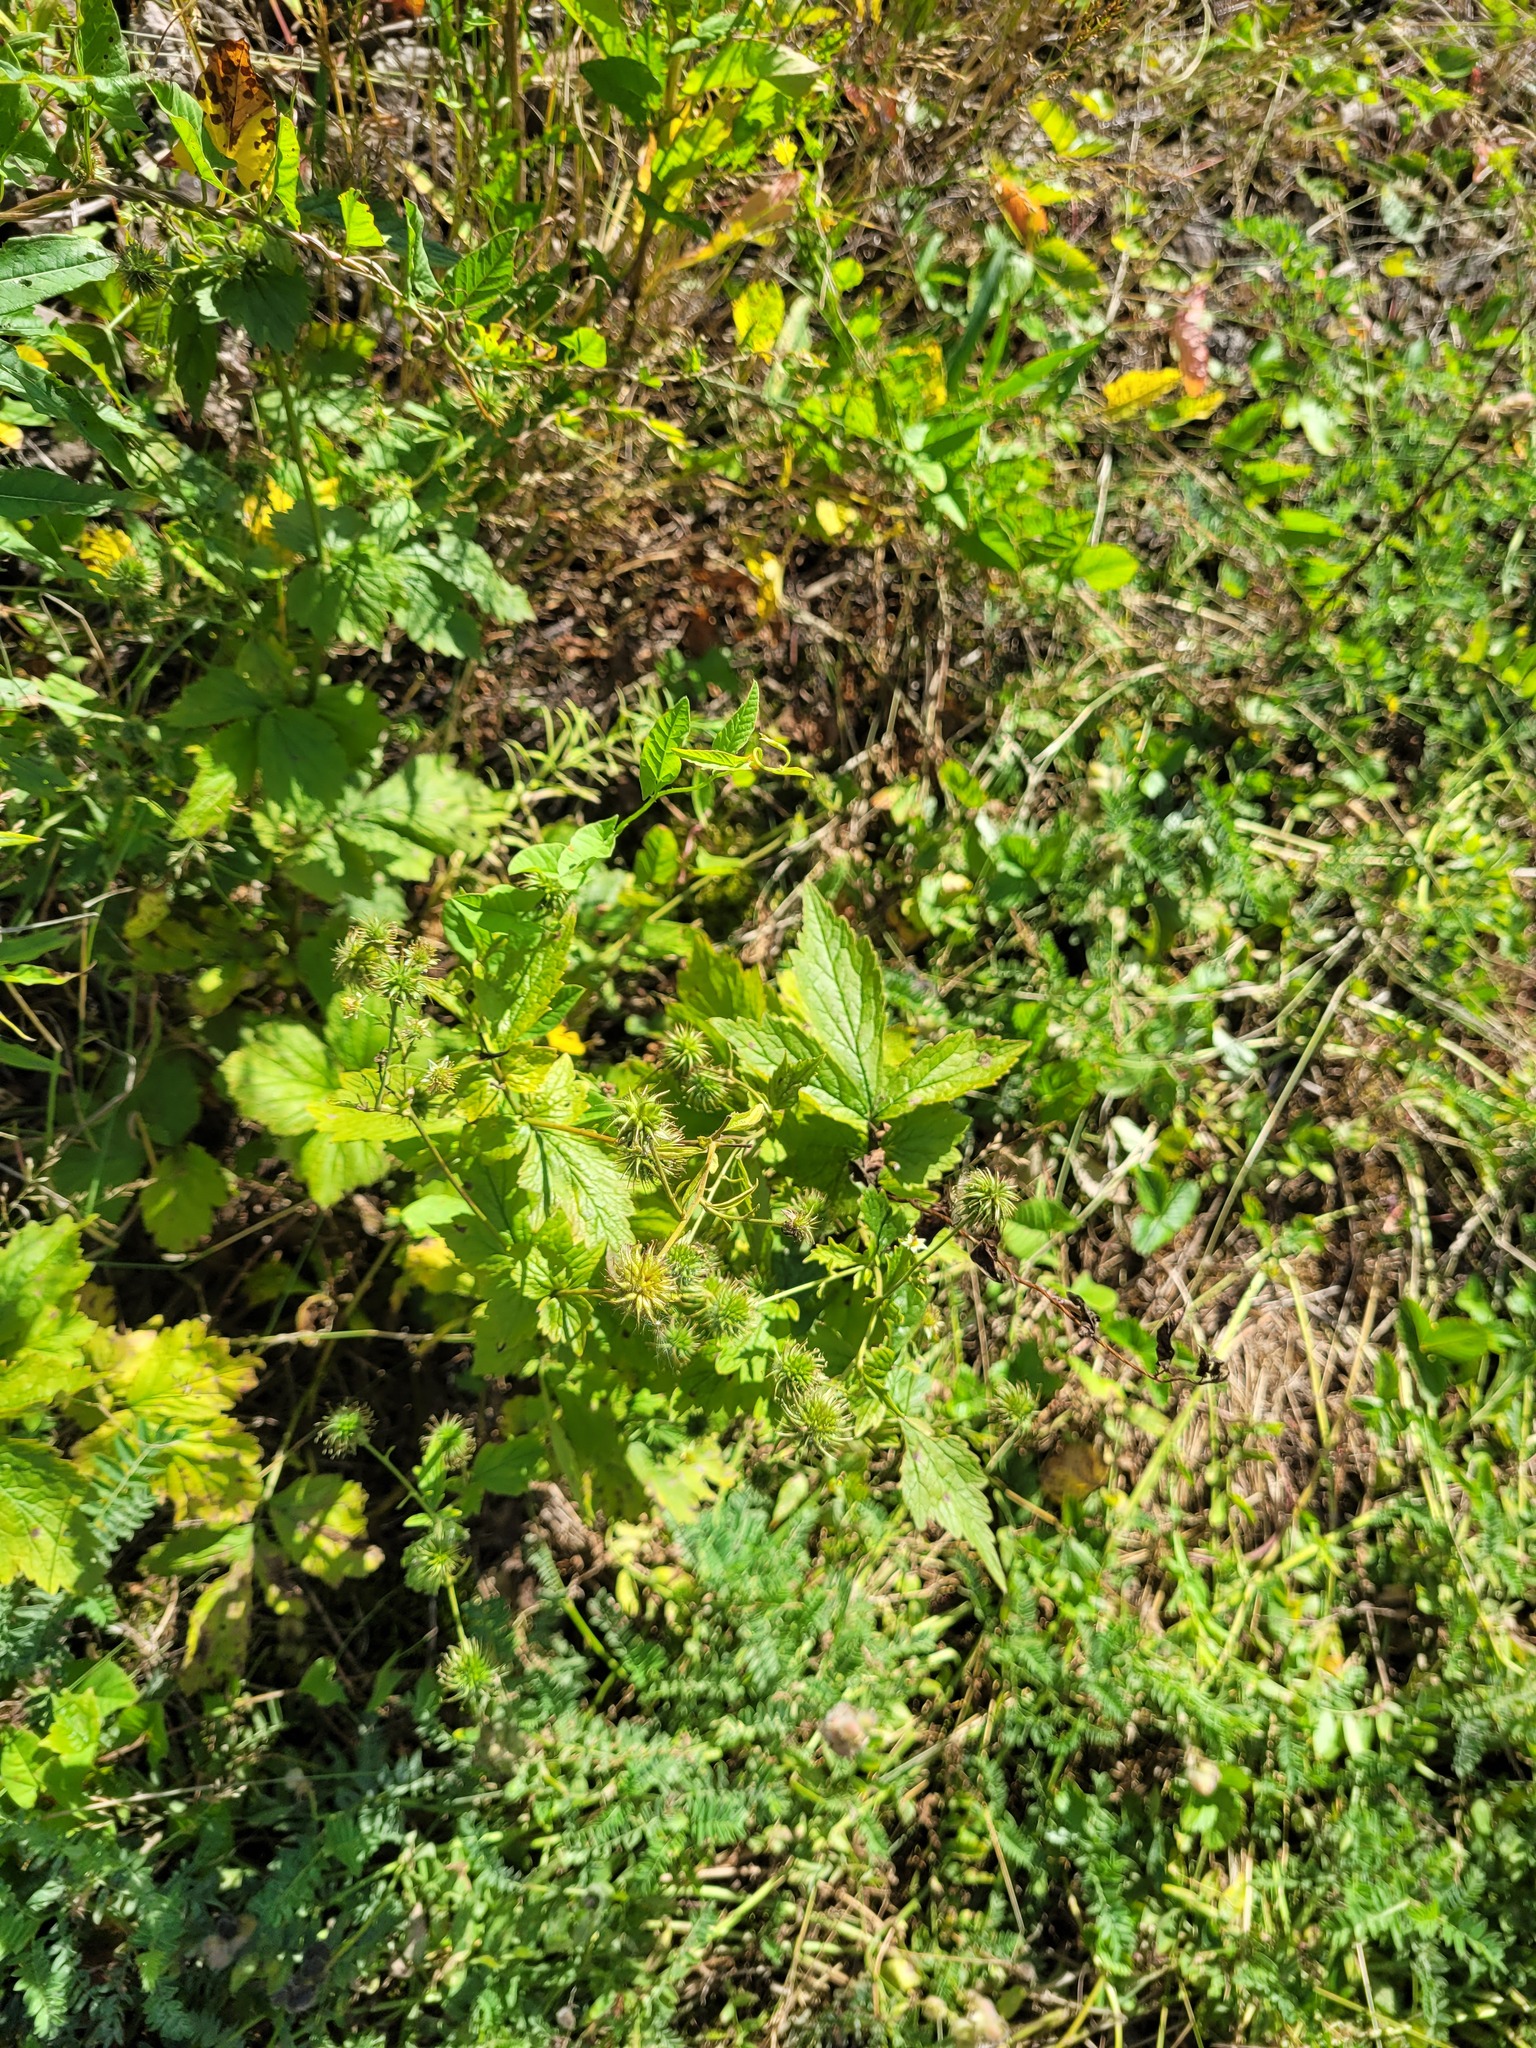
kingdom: Plantae
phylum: Tracheophyta
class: Magnoliopsida
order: Rosales
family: Rosaceae
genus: Geum
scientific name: Geum urbanum
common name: Wood avens
